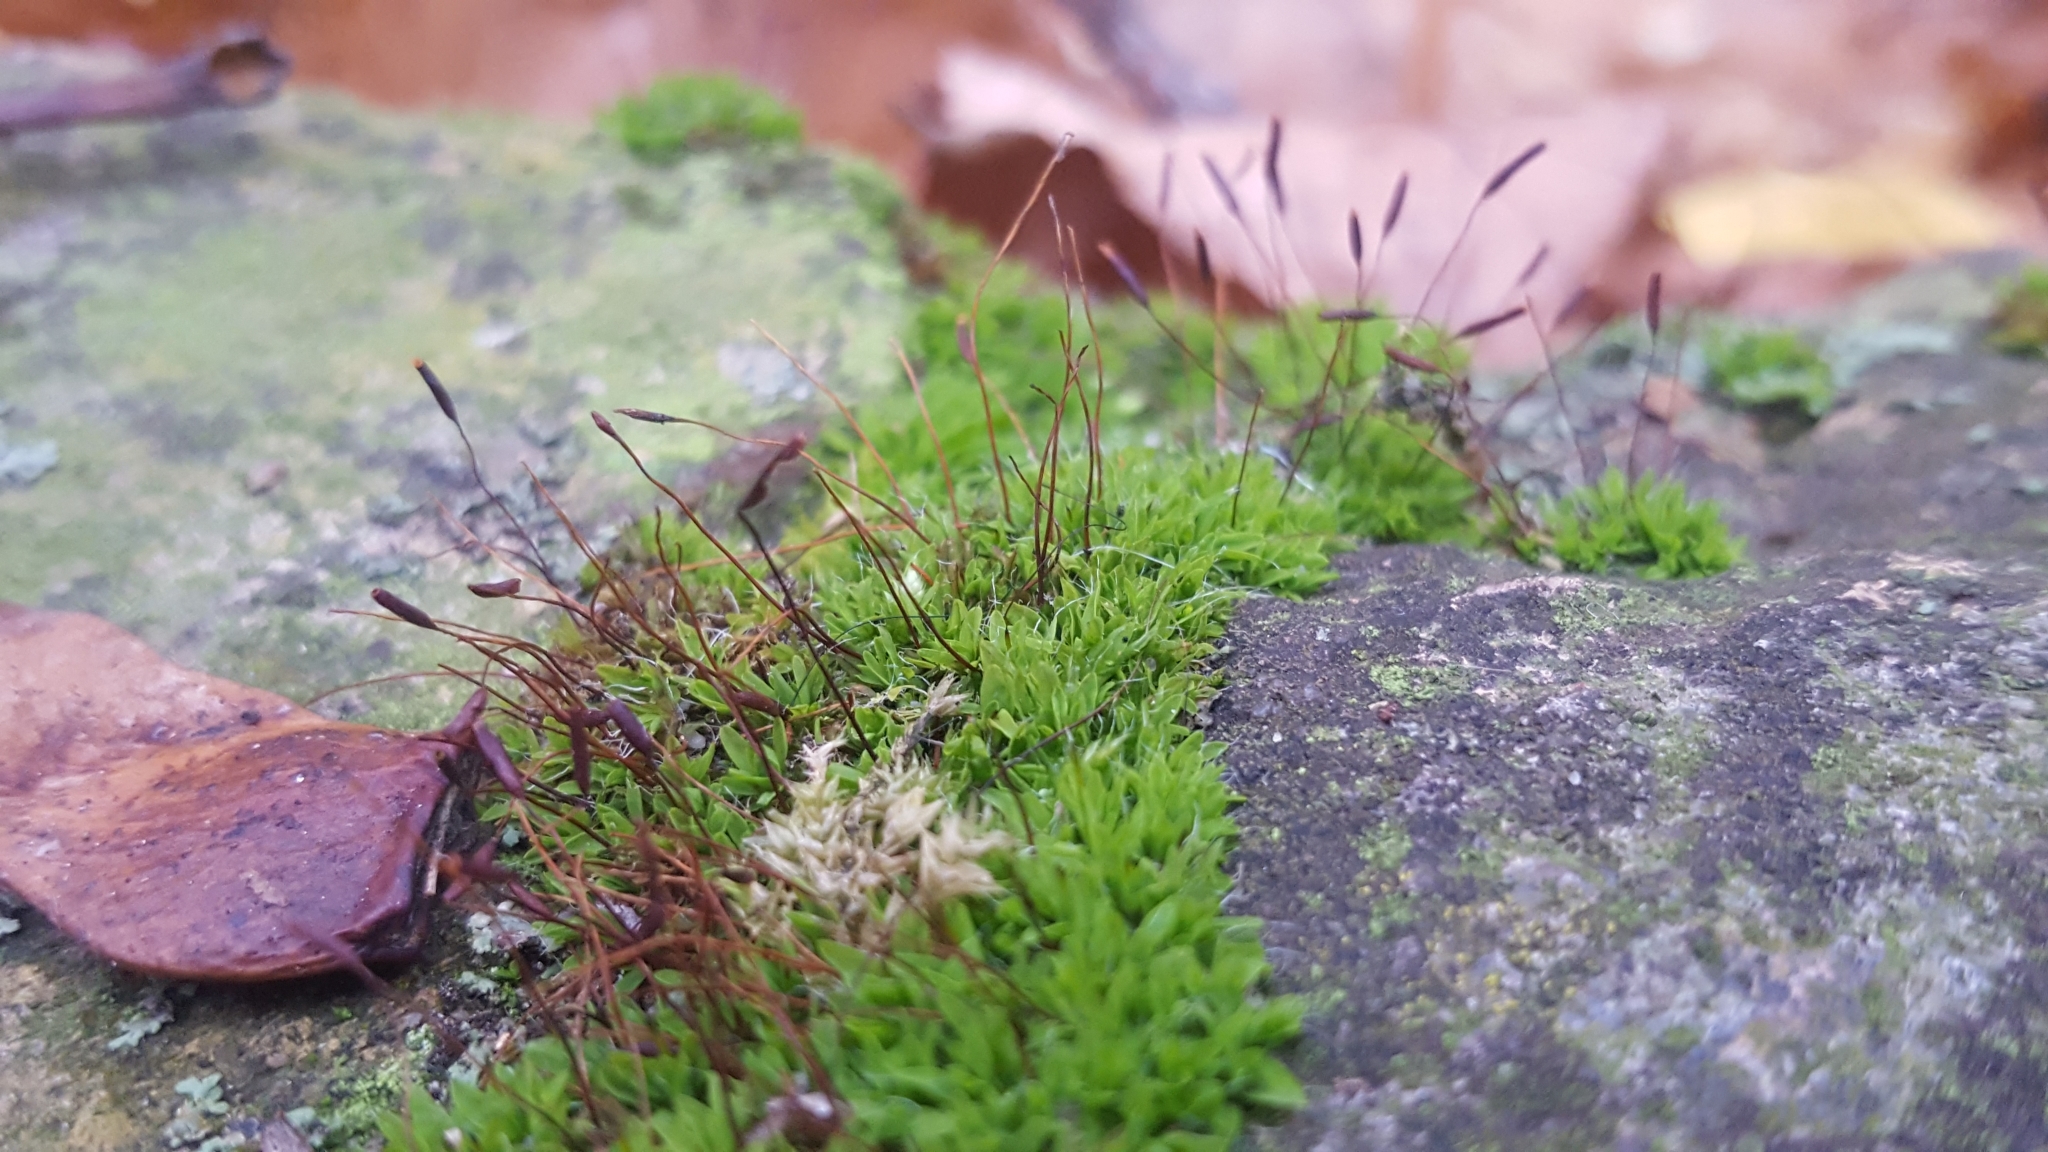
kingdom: Plantae
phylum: Bryophyta
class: Bryopsida
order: Pottiales
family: Pottiaceae
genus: Tortula
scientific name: Tortula muralis
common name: Wall screw-moss
